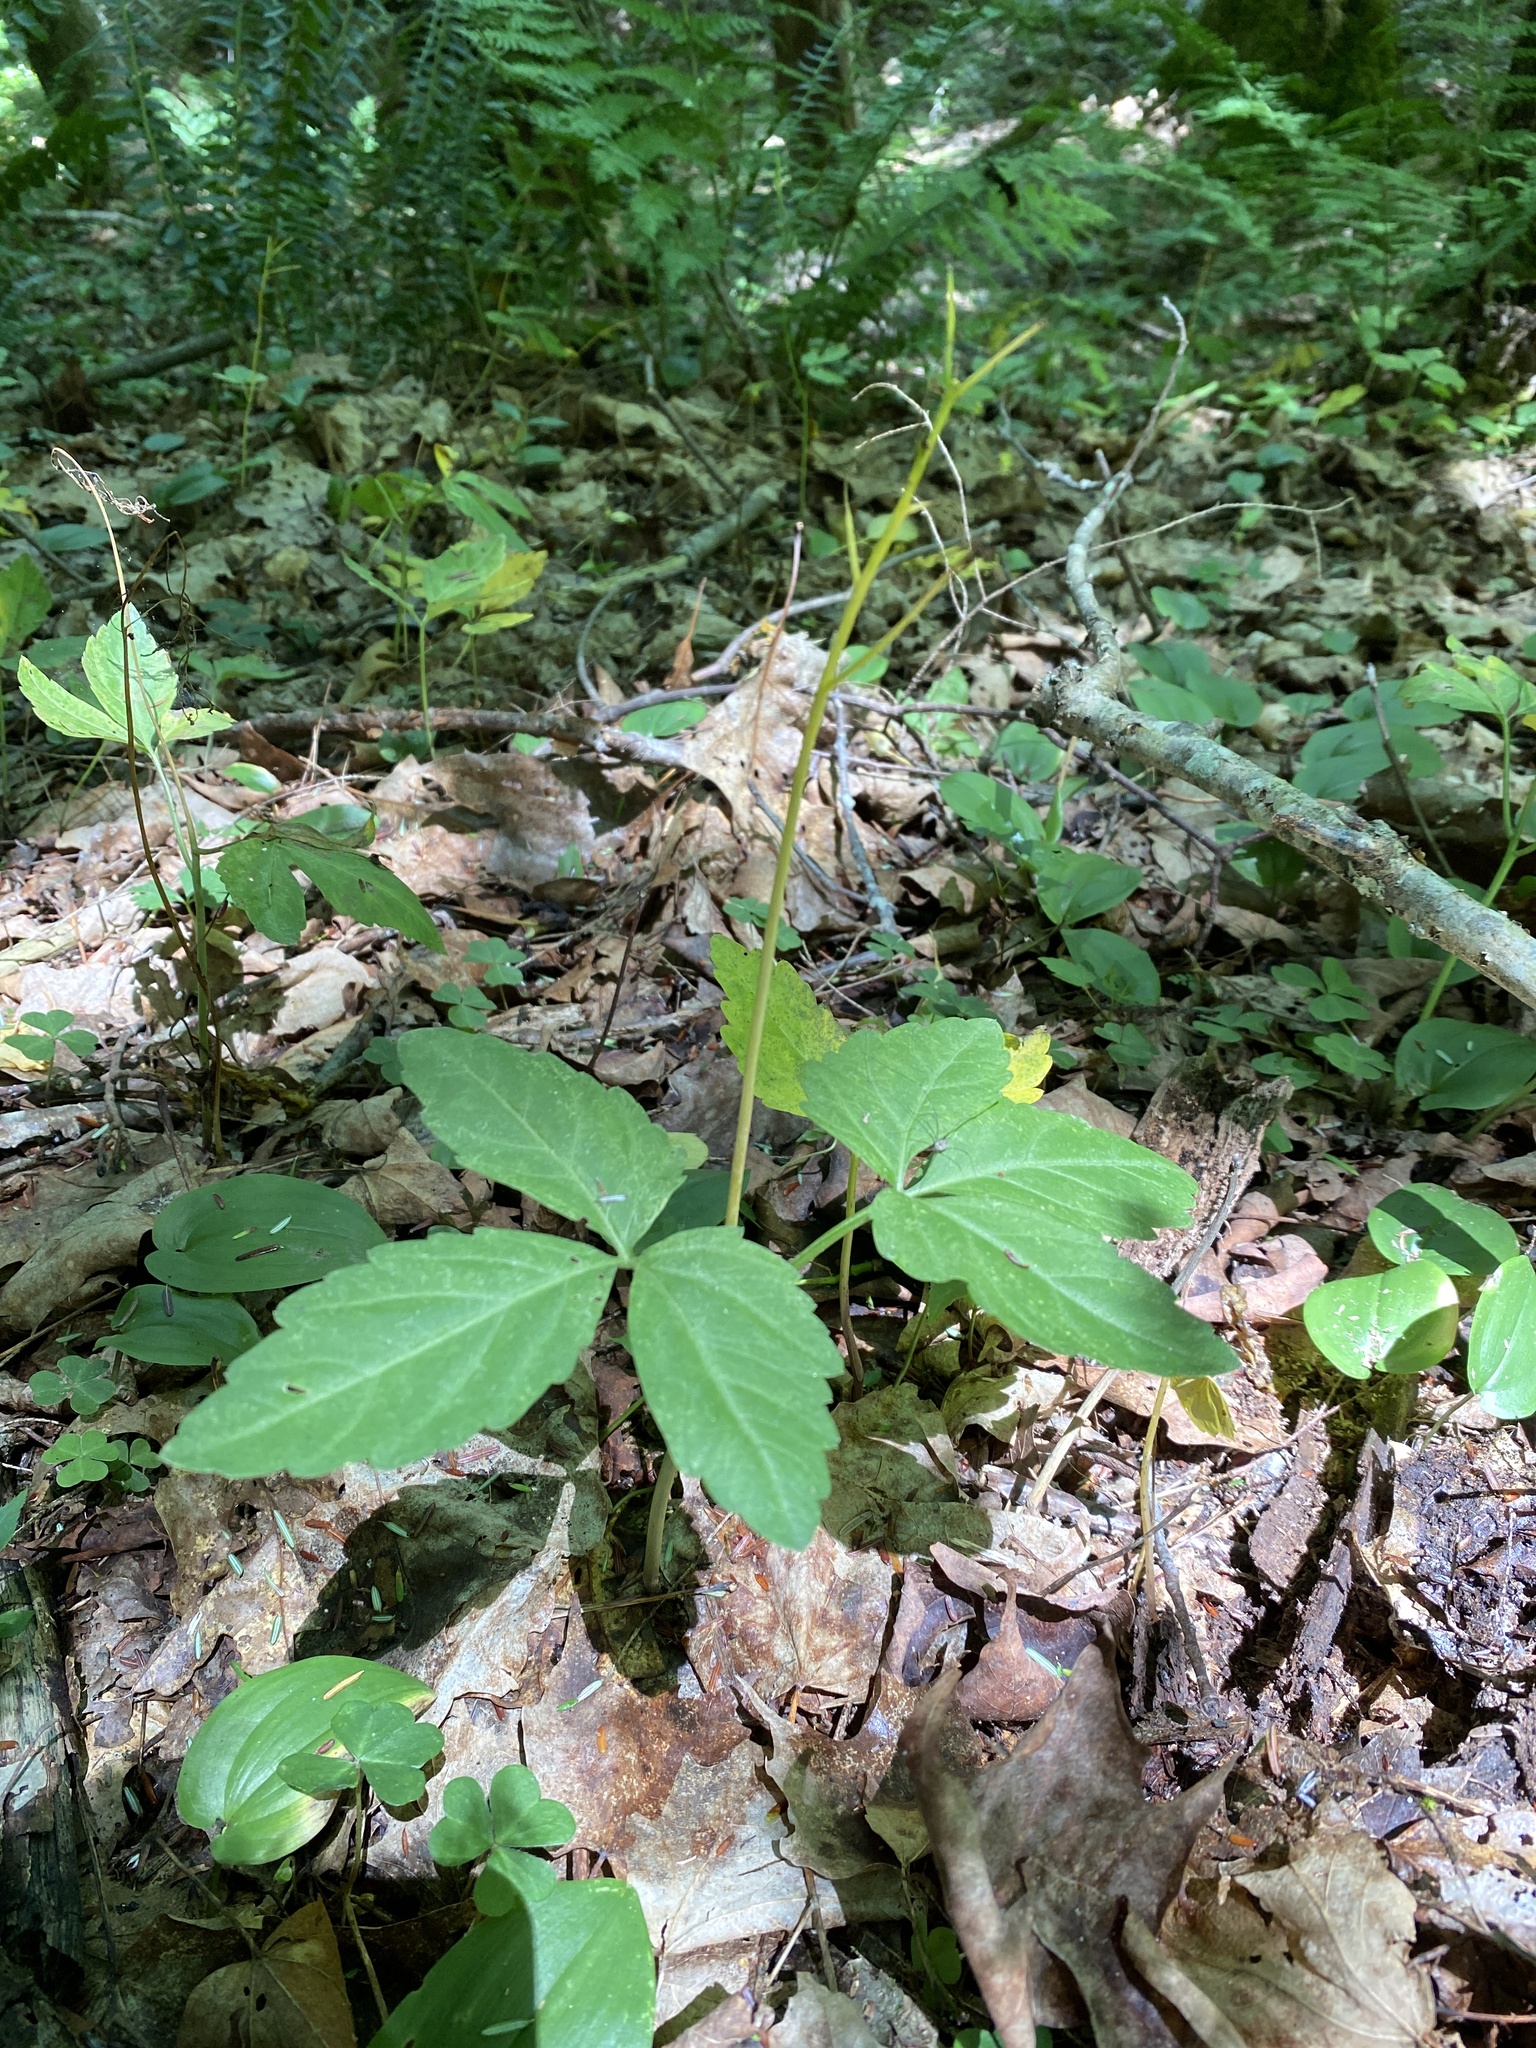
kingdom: Plantae
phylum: Tracheophyta
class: Magnoliopsida
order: Brassicales
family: Brassicaceae
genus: Cardamine
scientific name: Cardamine diphylla
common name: Broad-leaved toothwort
